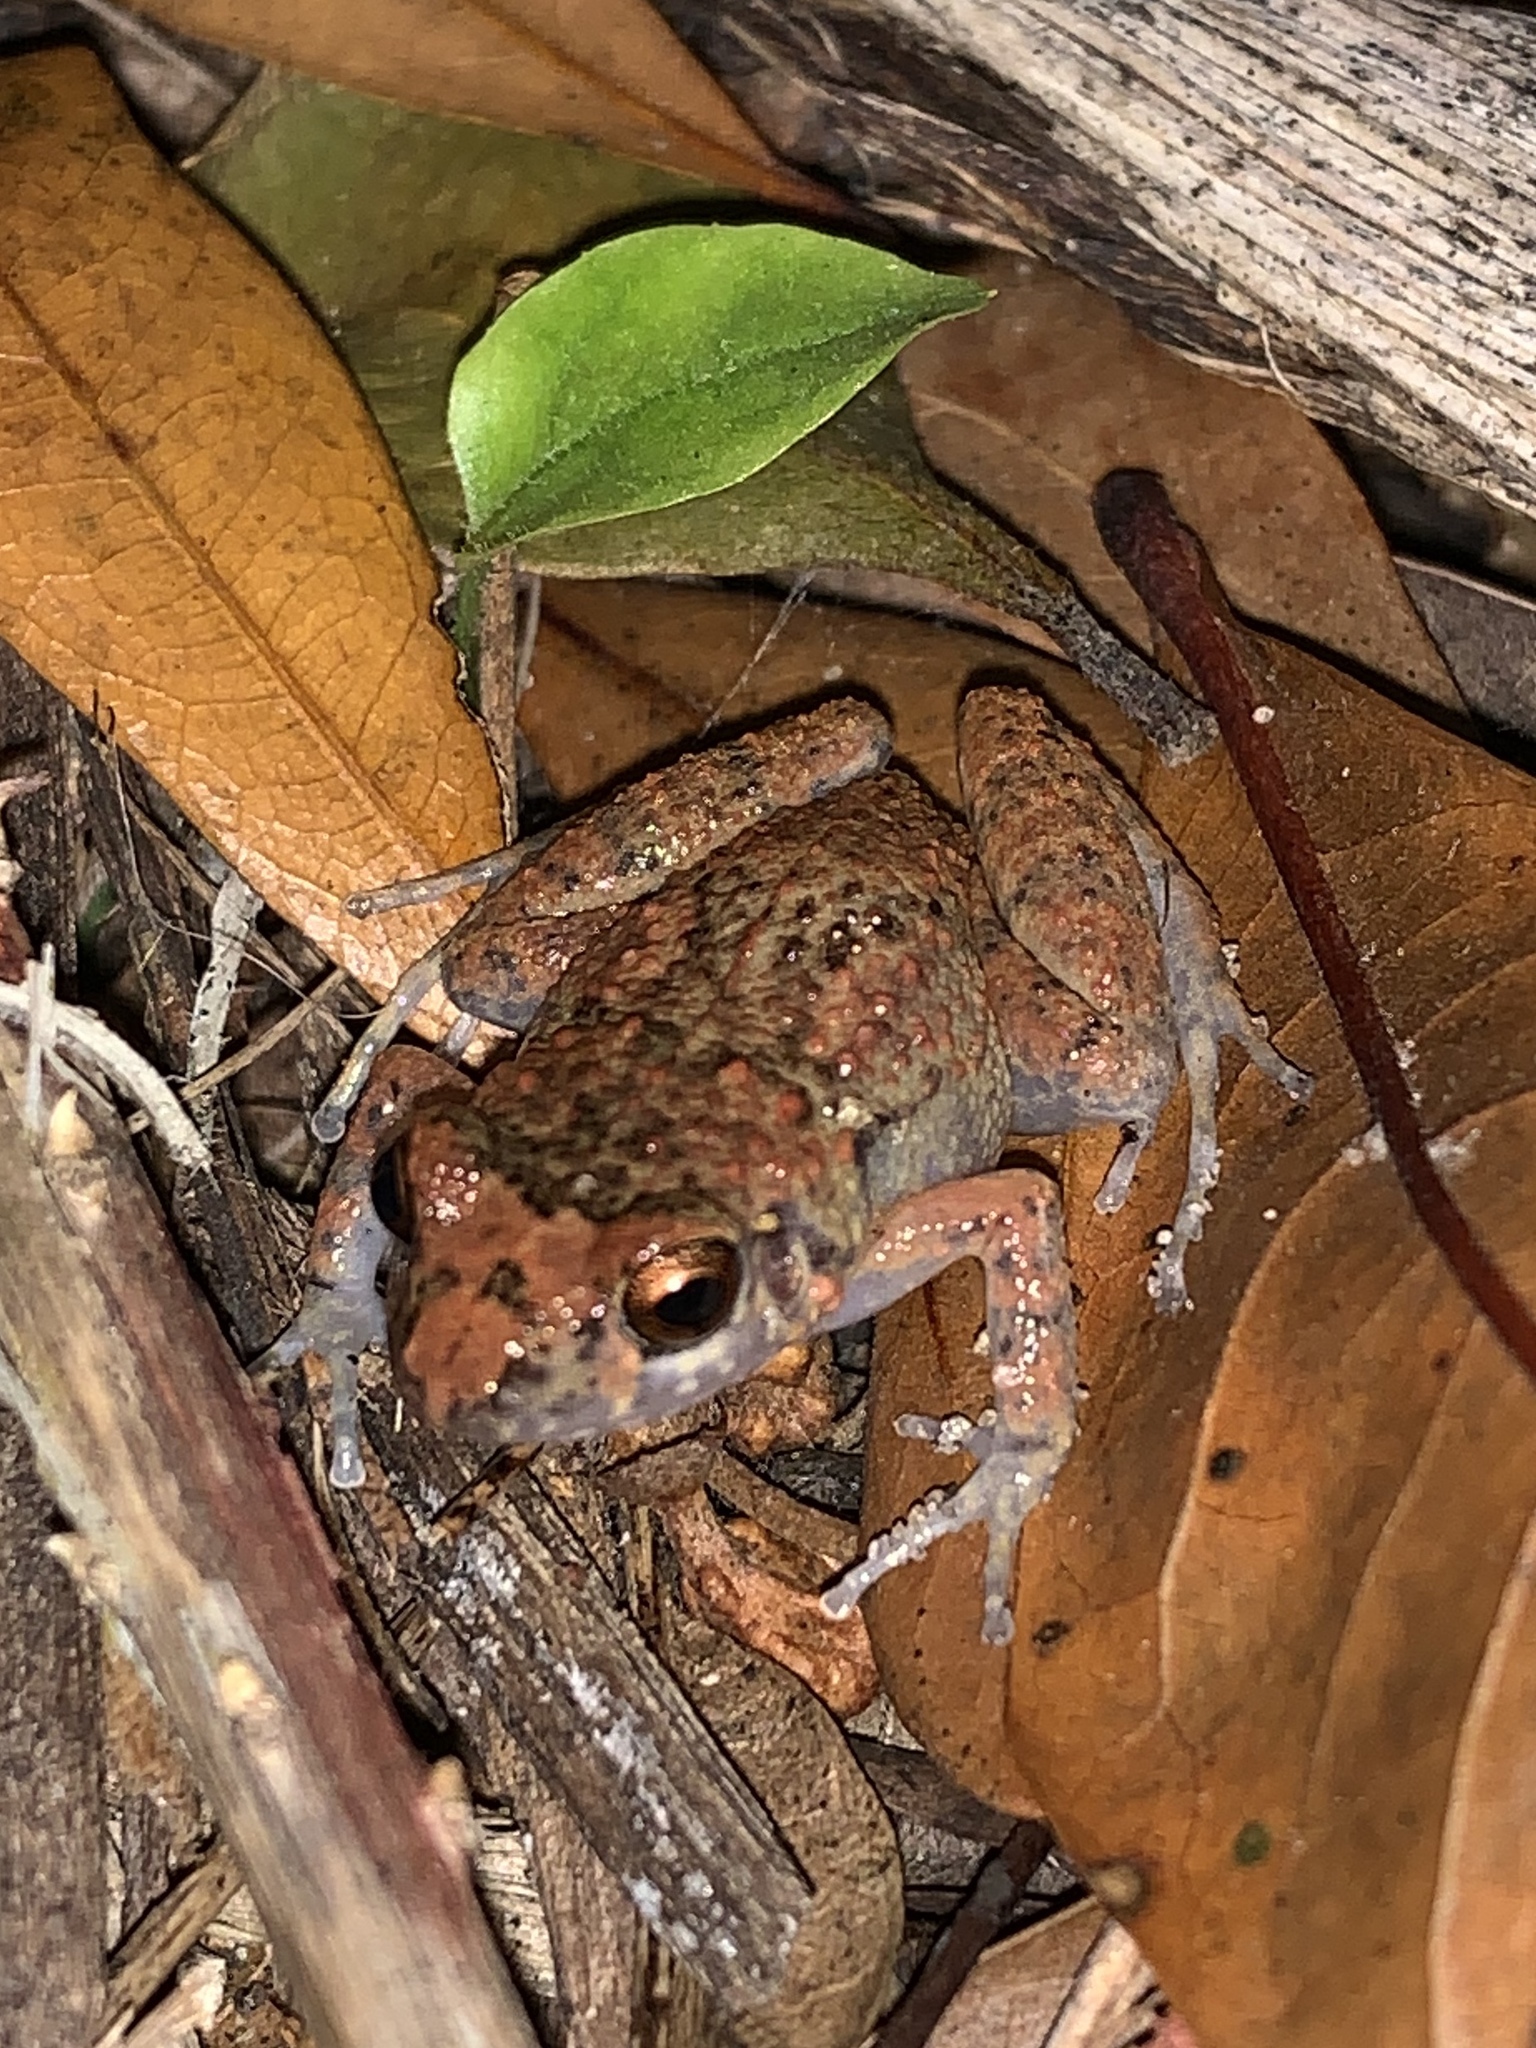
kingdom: Animalia
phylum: Chordata
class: Amphibia
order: Anura
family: Eleutherodactylidae
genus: Eleutherodactylus
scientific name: Eleutherodactylus planirostris
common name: Greenhouse frog
